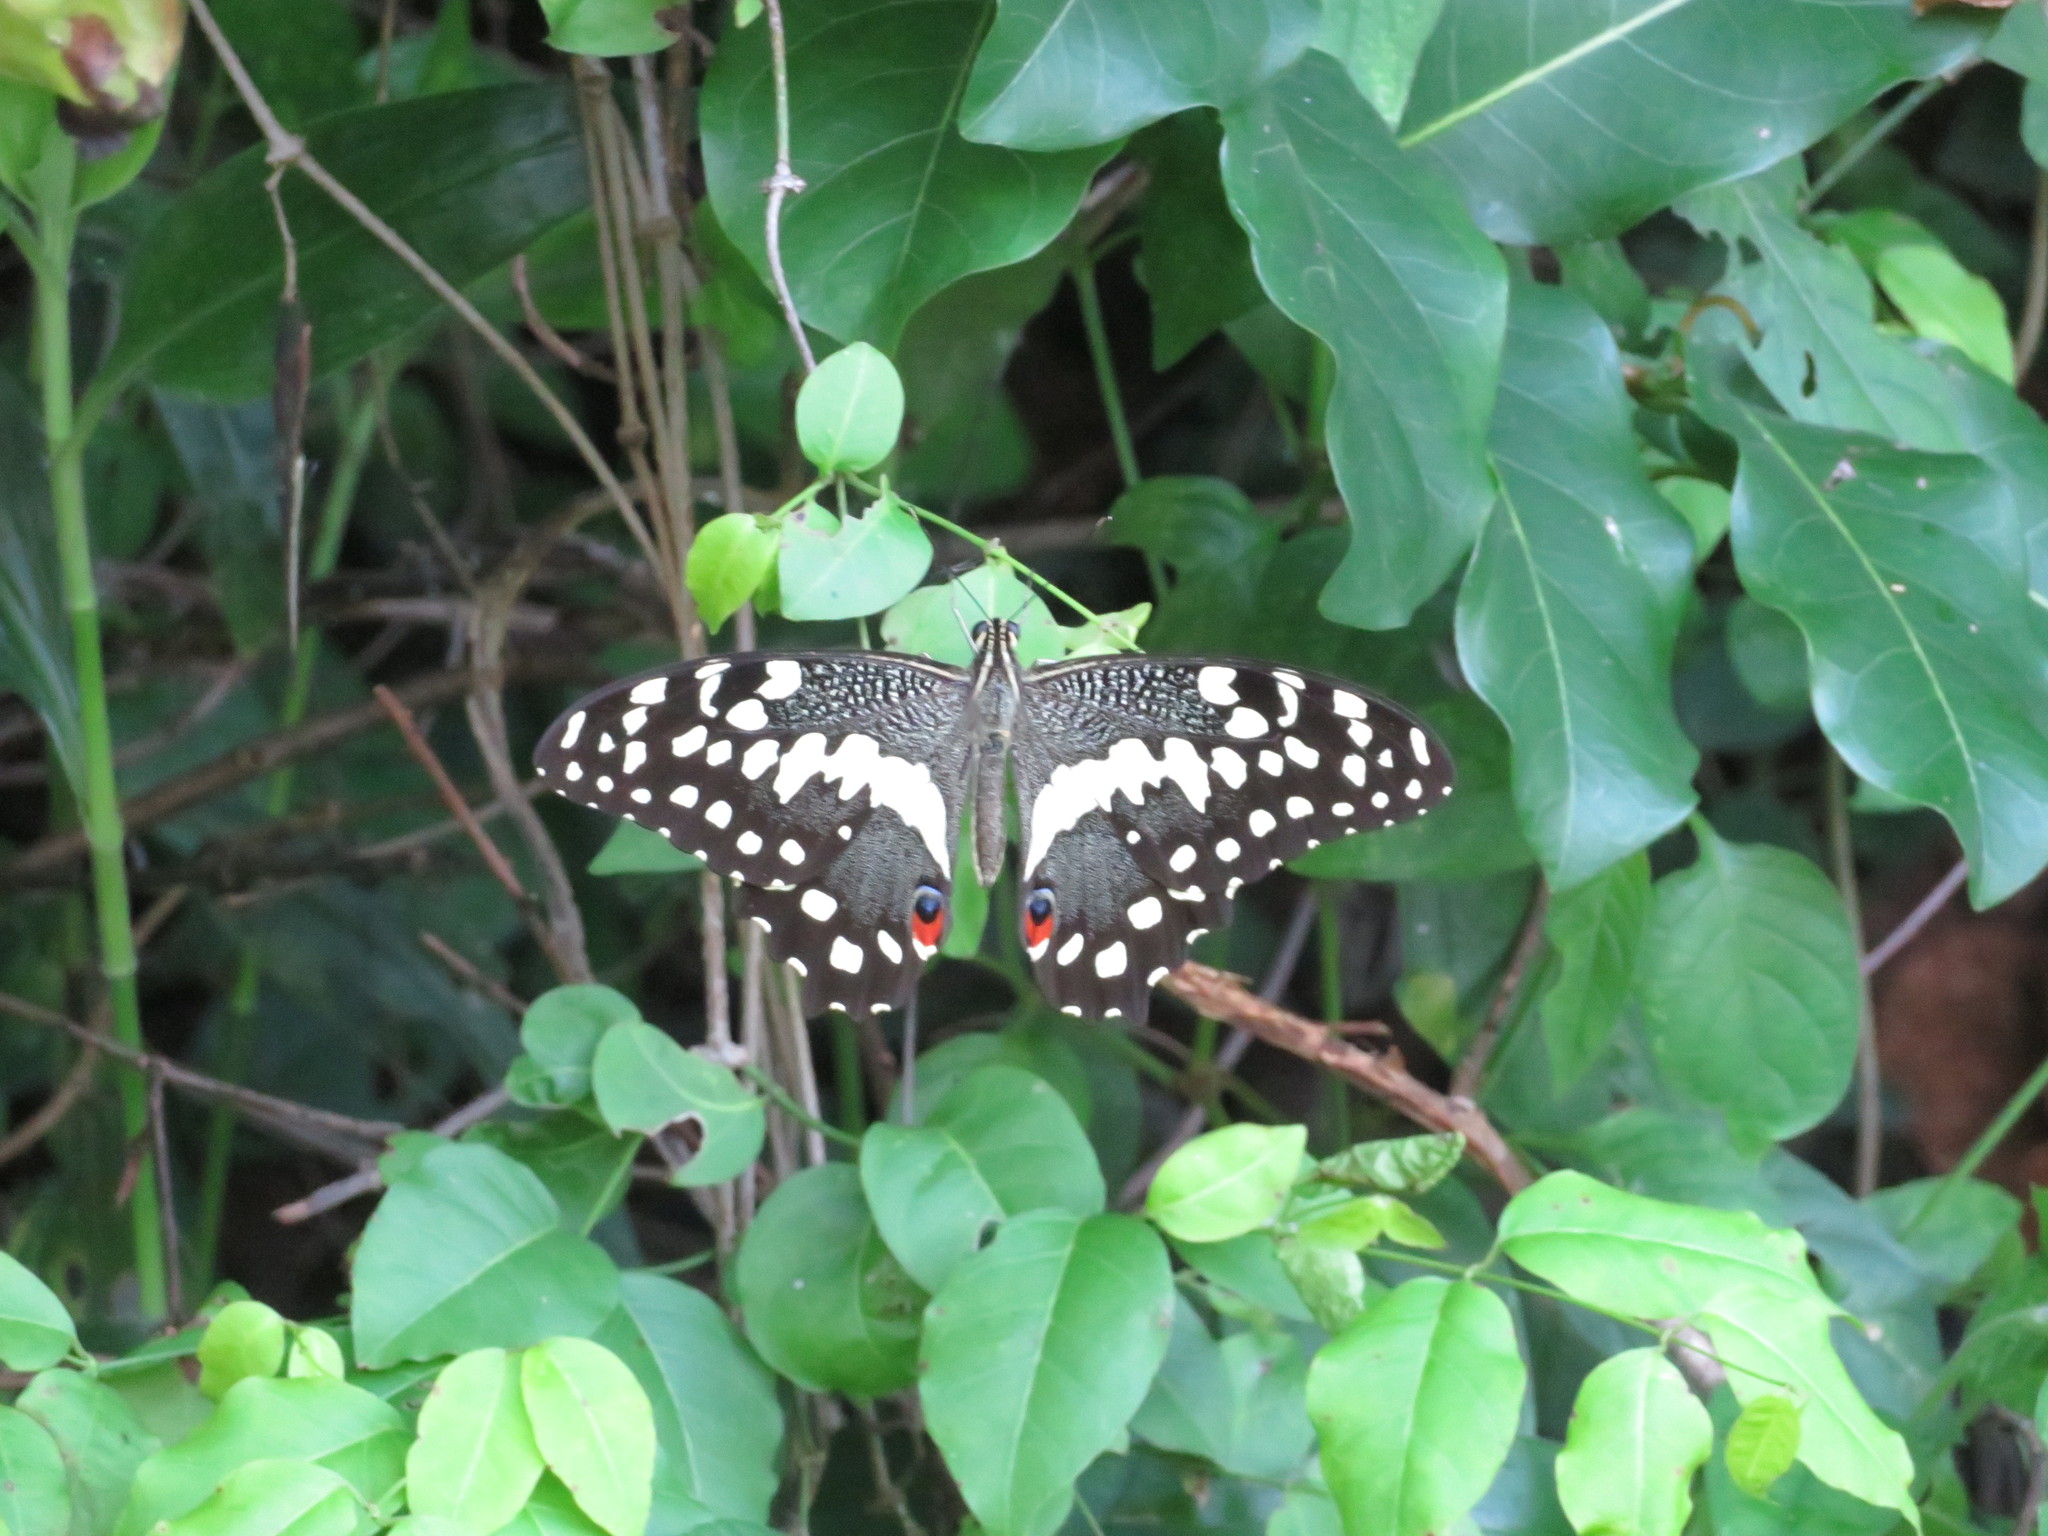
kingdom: Animalia
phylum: Arthropoda
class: Insecta
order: Lepidoptera
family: Papilionidae
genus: Papilio
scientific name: Papilio demodocus
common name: Christmas butterfly
